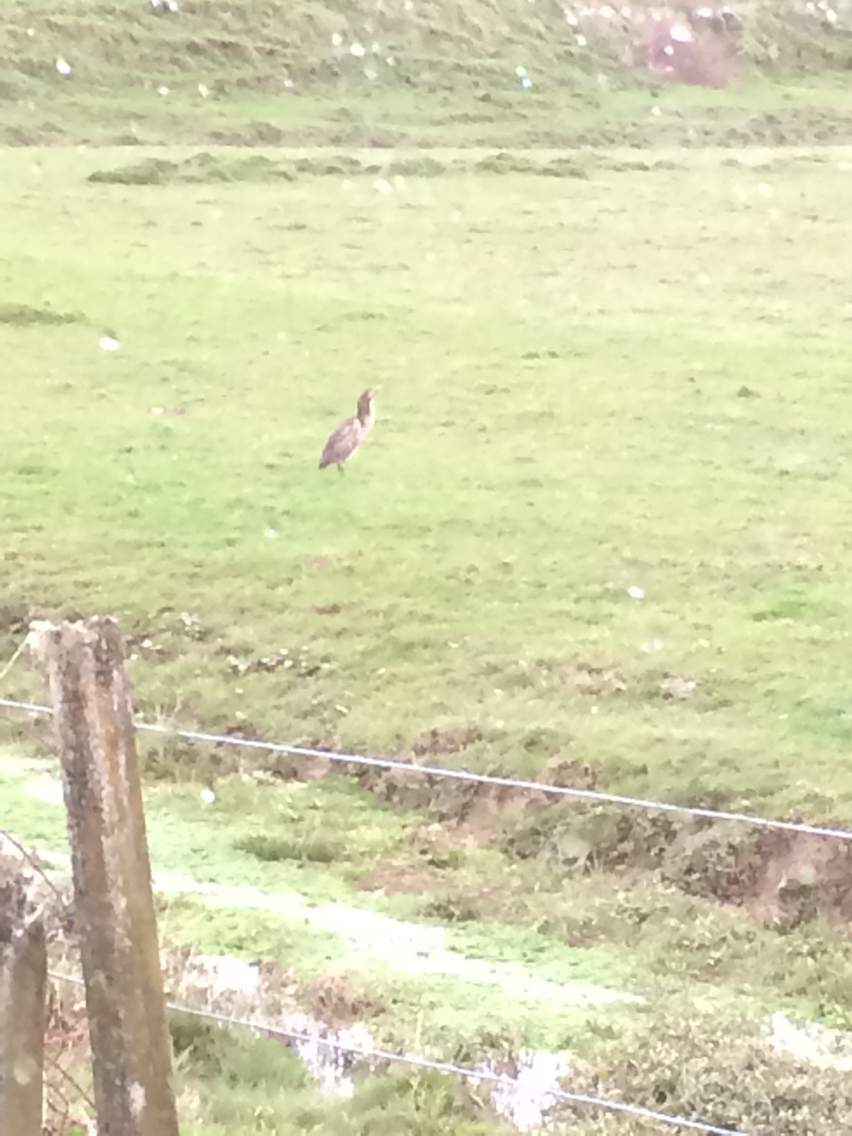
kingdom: Animalia
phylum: Chordata
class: Aves
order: Pelecaniformes
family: Ardeidae
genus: Botaurus
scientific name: Botaurus poiciloptilus
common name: Australasian bittern
